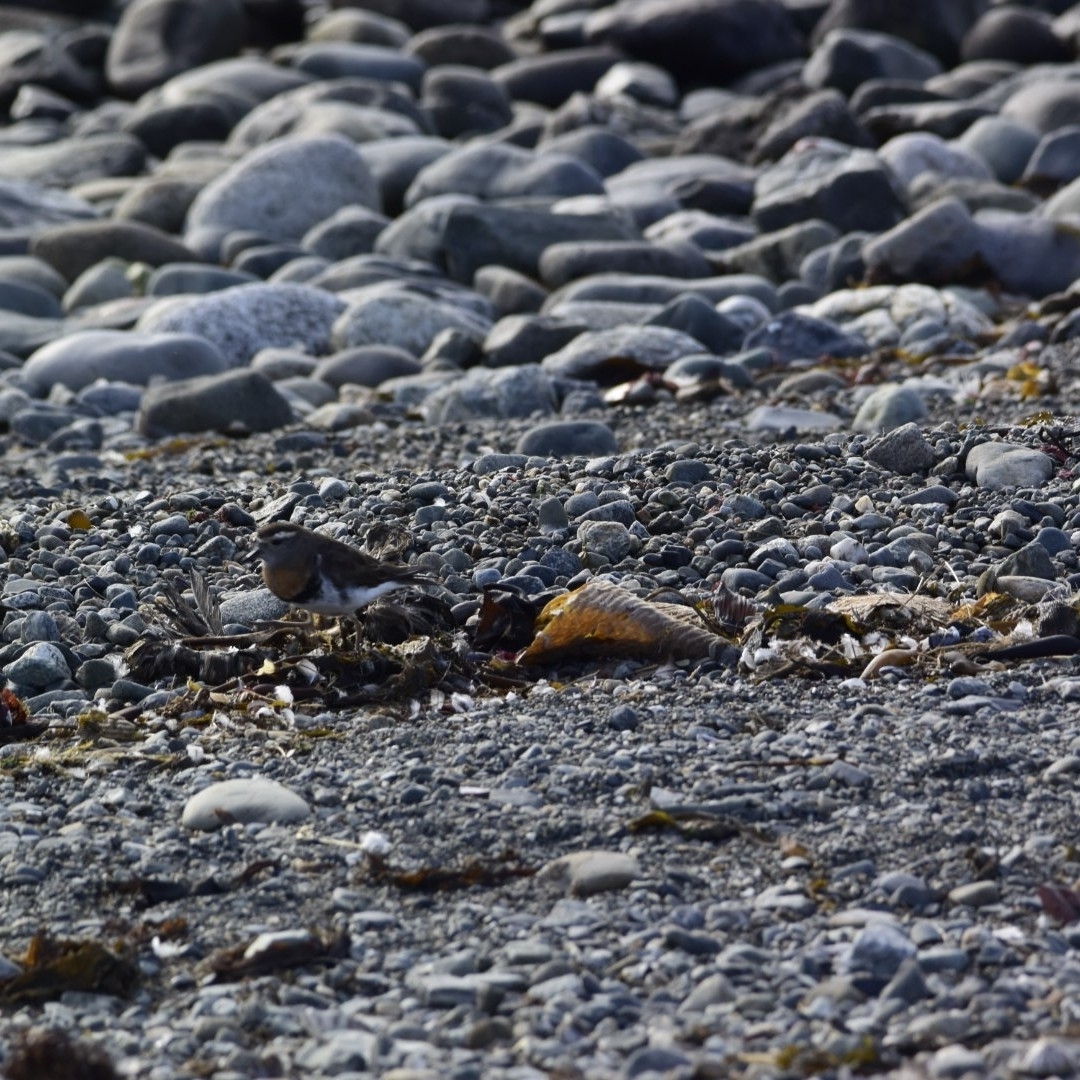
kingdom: Animalia
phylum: Chordata
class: Aves
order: Charadriiformes
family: Charadriidae
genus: Charadrius
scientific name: Charadrius modestus
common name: Rufous-chested plover
